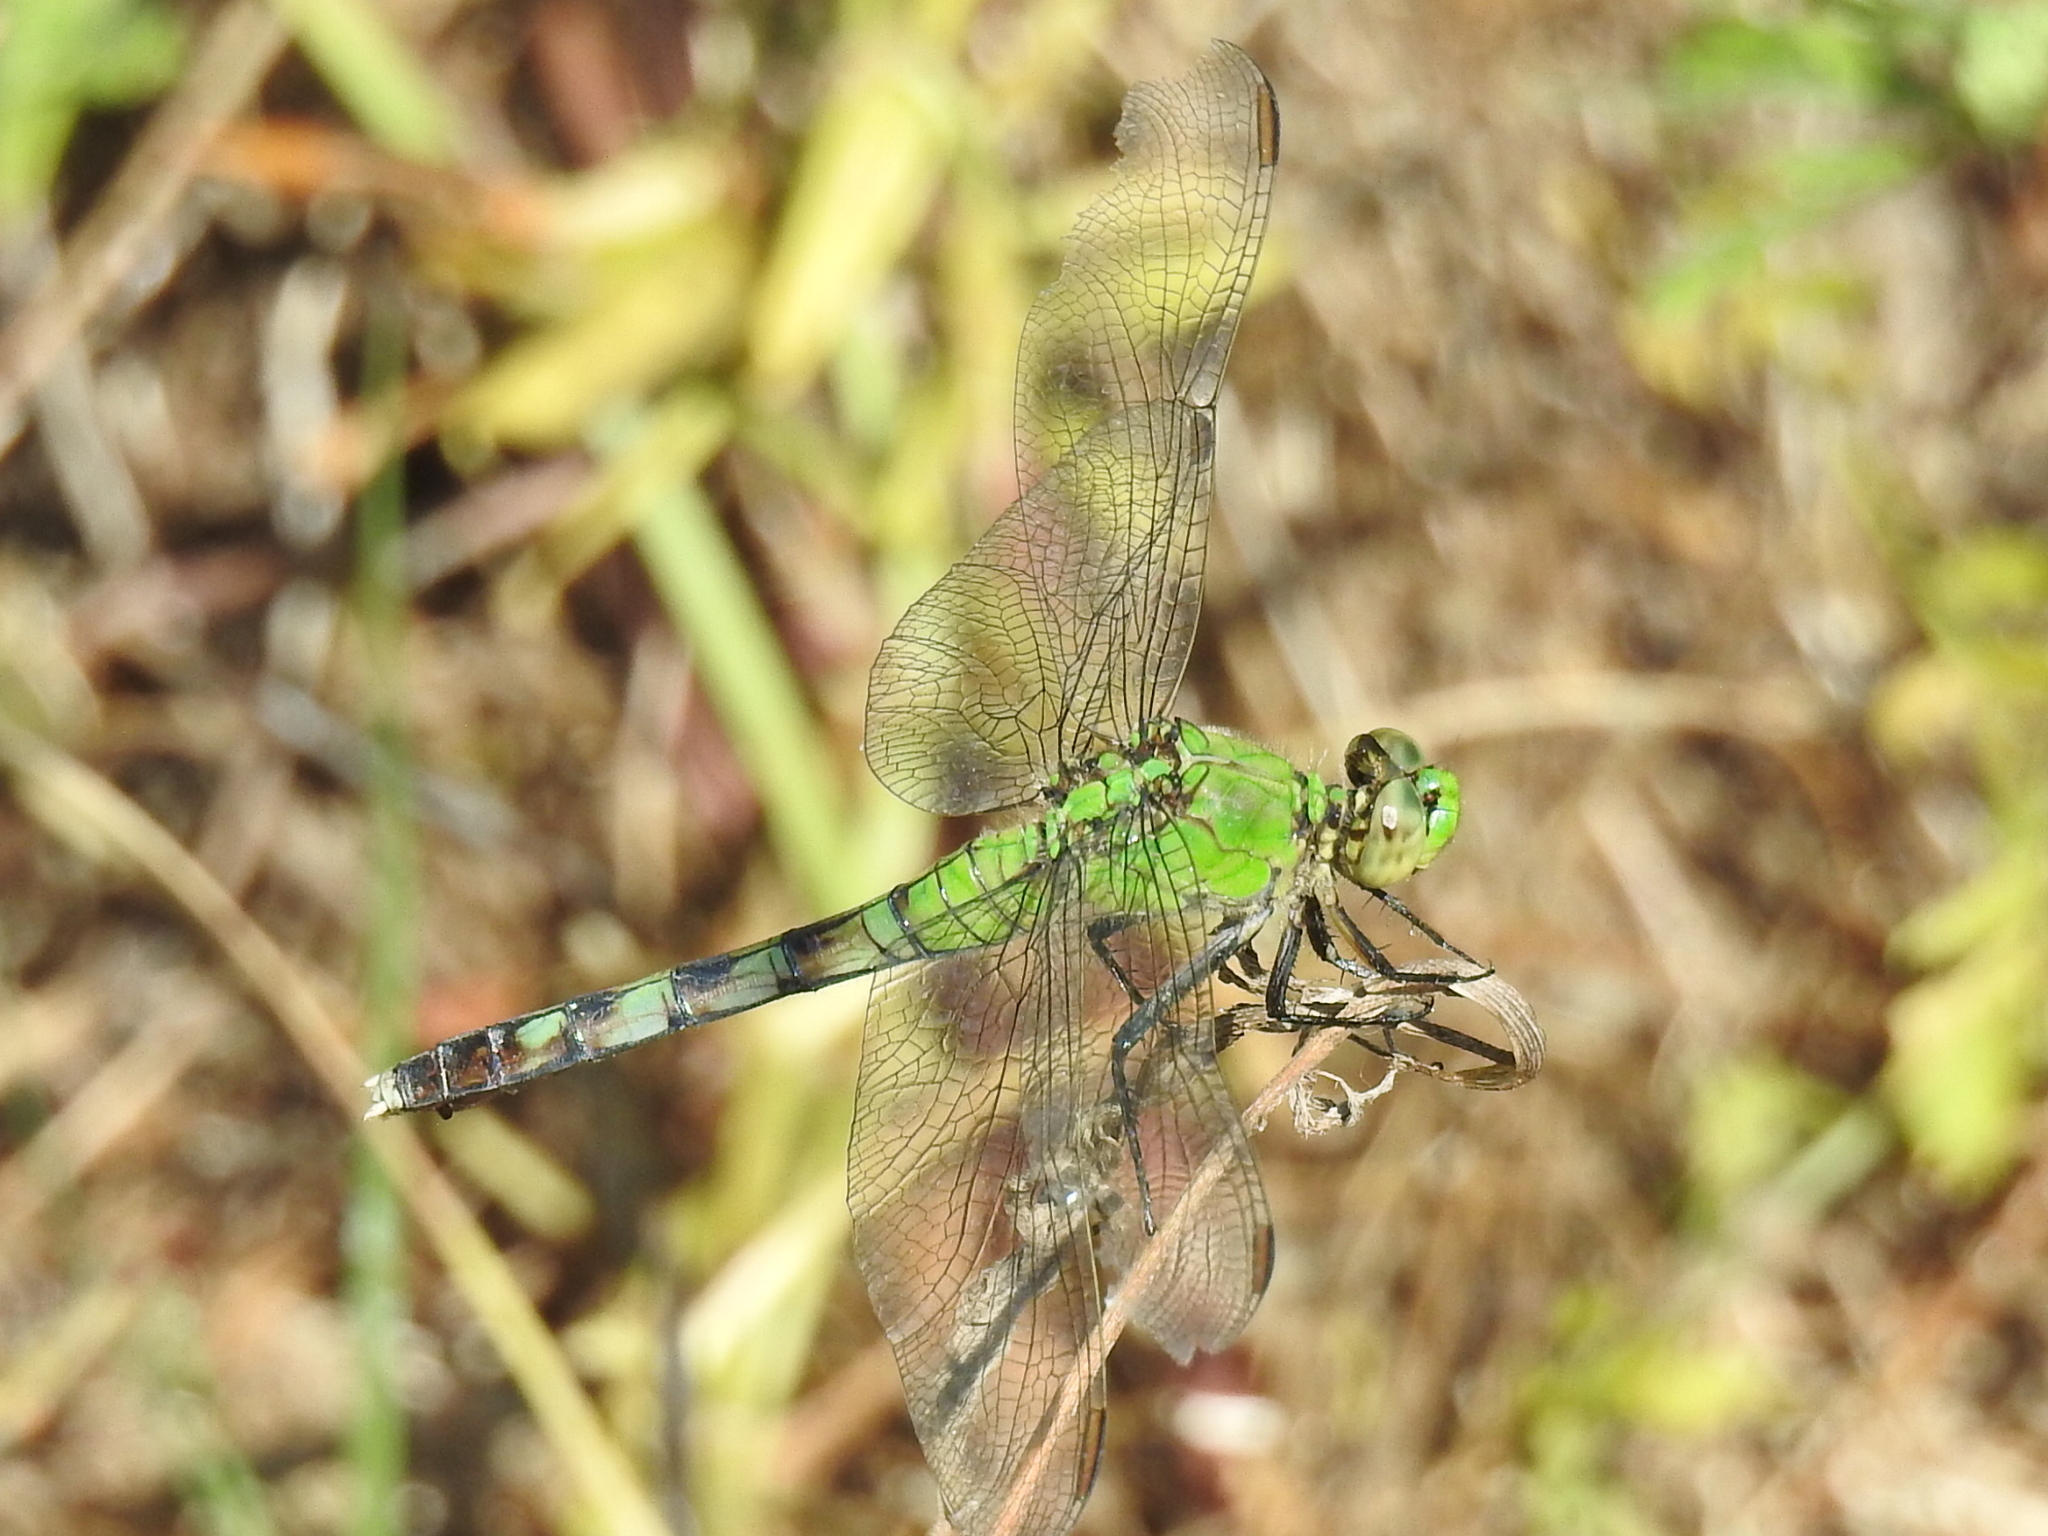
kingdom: Animalia
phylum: Arthropoda
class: Insecta
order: Odonata
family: Libellulidae
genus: Erythemis
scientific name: Erythemis simplicicollis
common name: Eastern pondhawk
